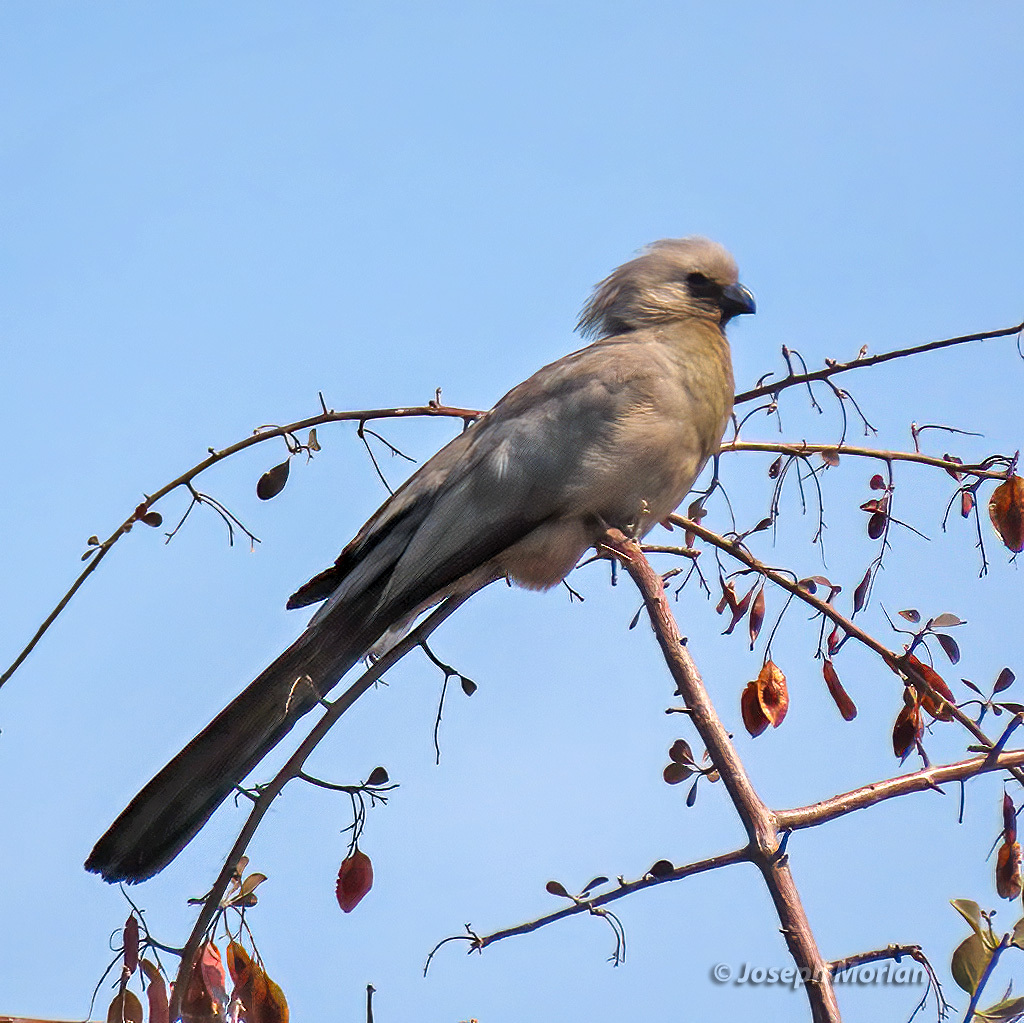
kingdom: Animalia
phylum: Chordata
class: Aves
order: Musophagiformes
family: Musophagidae
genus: Corythaixoides
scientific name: Corythaixoides concolor
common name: Grey go-away-bird
